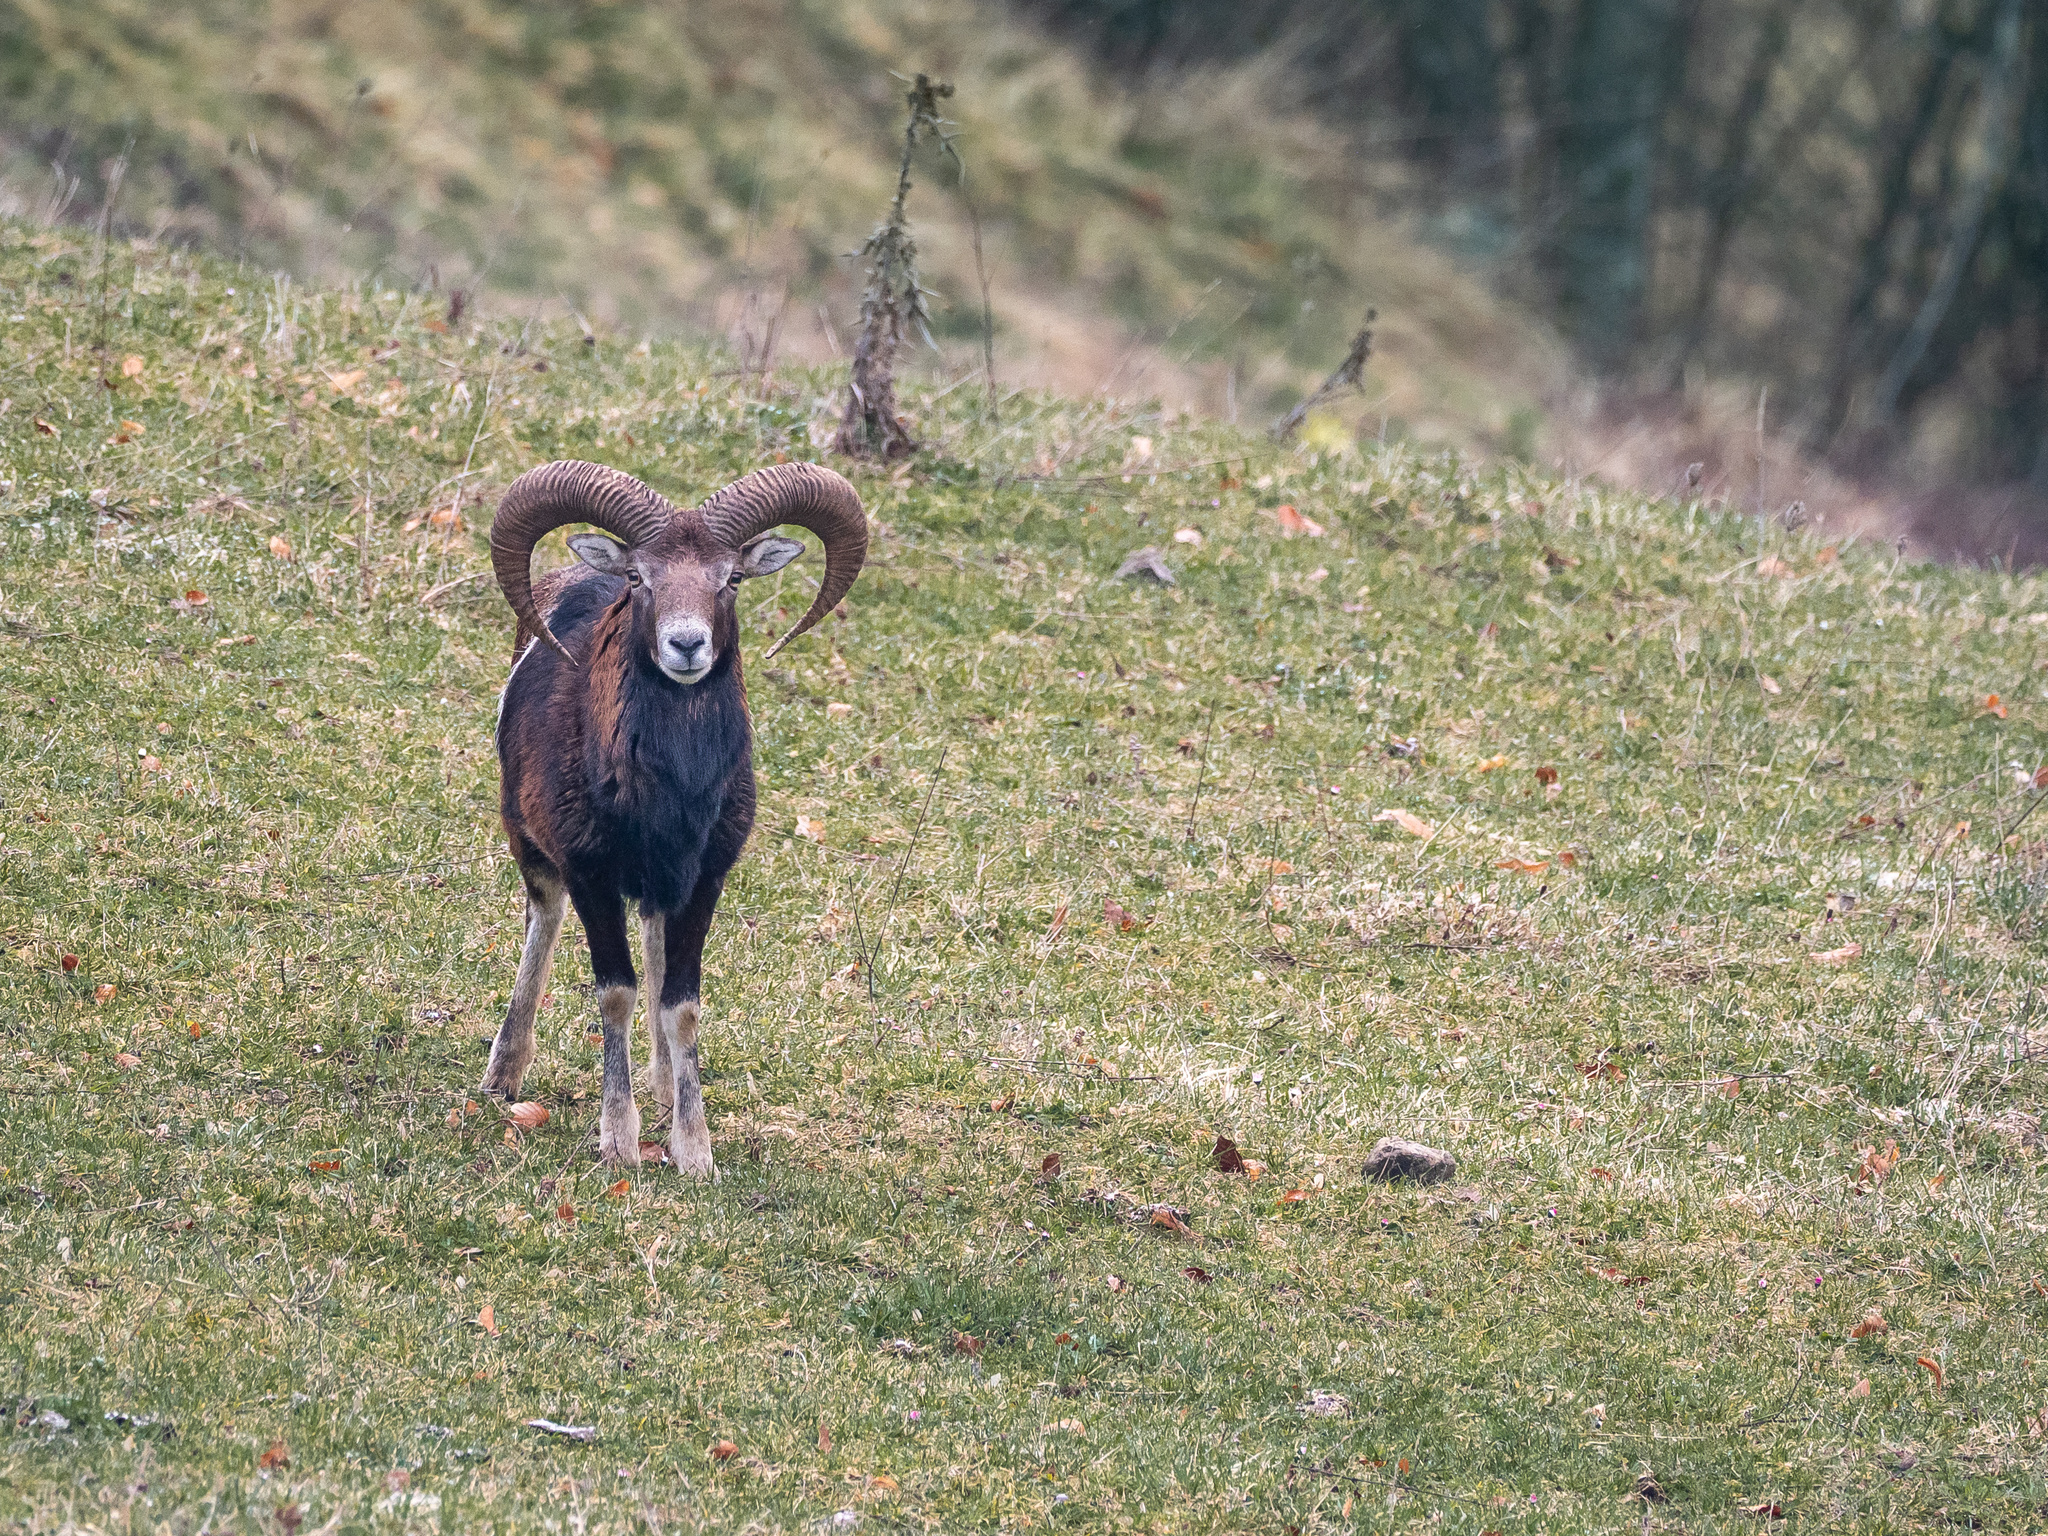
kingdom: Animalia
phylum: Chordata
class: Mammalia
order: Artiodactyla
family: Bovidae
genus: Ovis
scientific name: Ovis aries
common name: Domestic sheep
